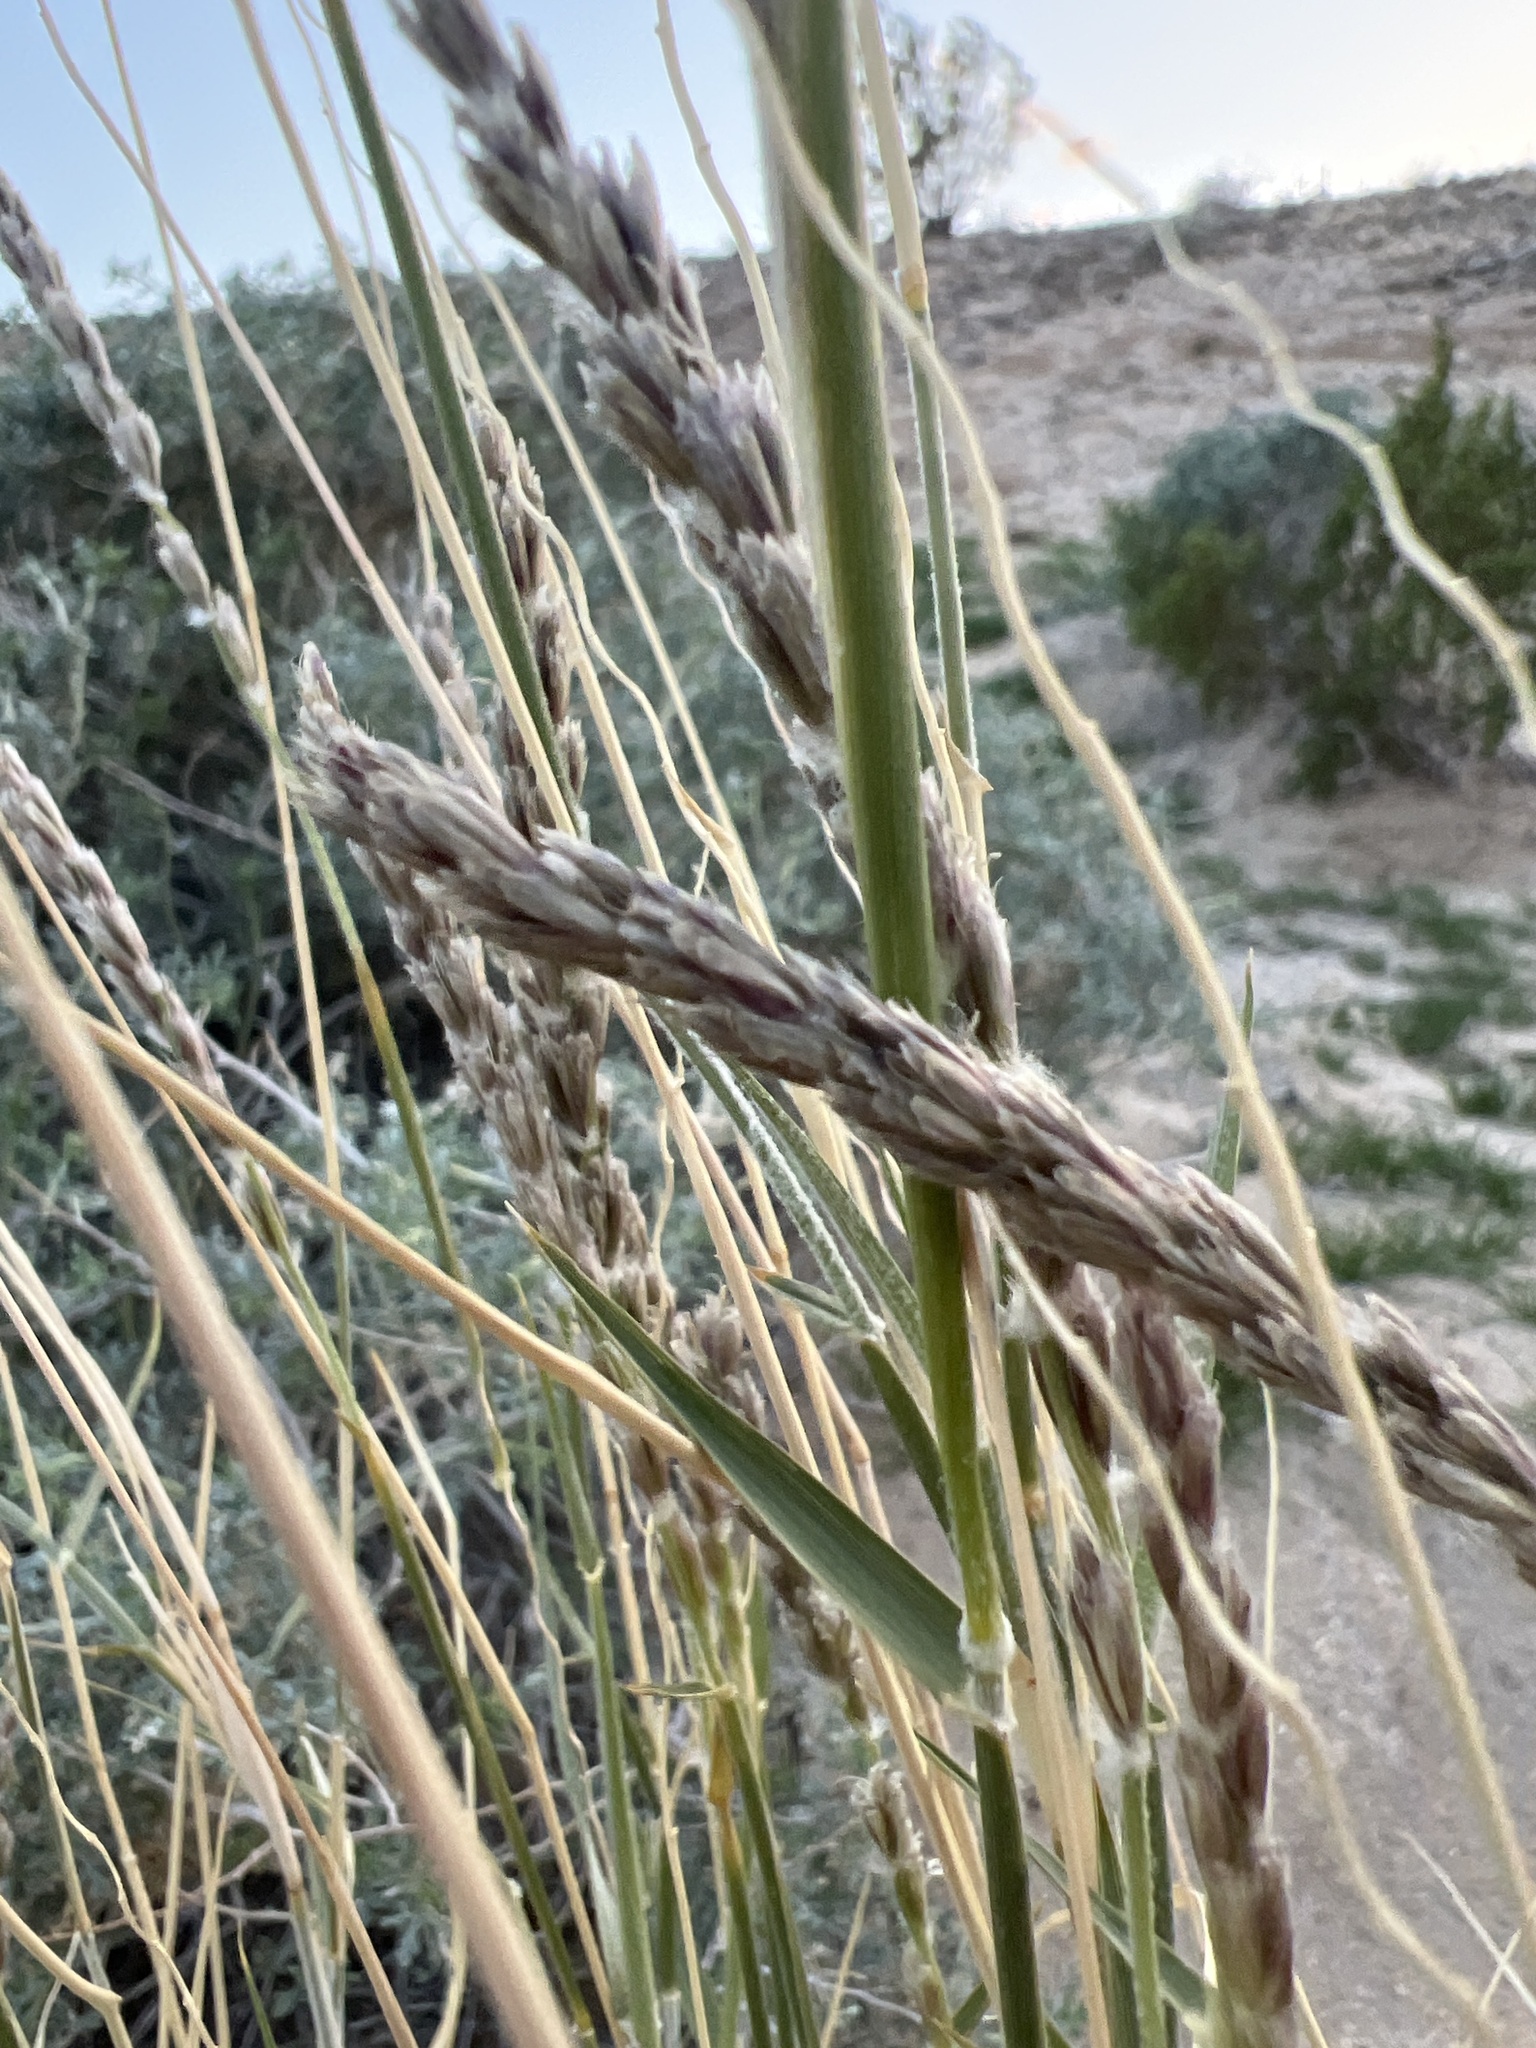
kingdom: Plantae
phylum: Tracheophyta
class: Liliopsida
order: Poales
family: Poaceae
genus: Hilaria
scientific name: Hilaria rigida
